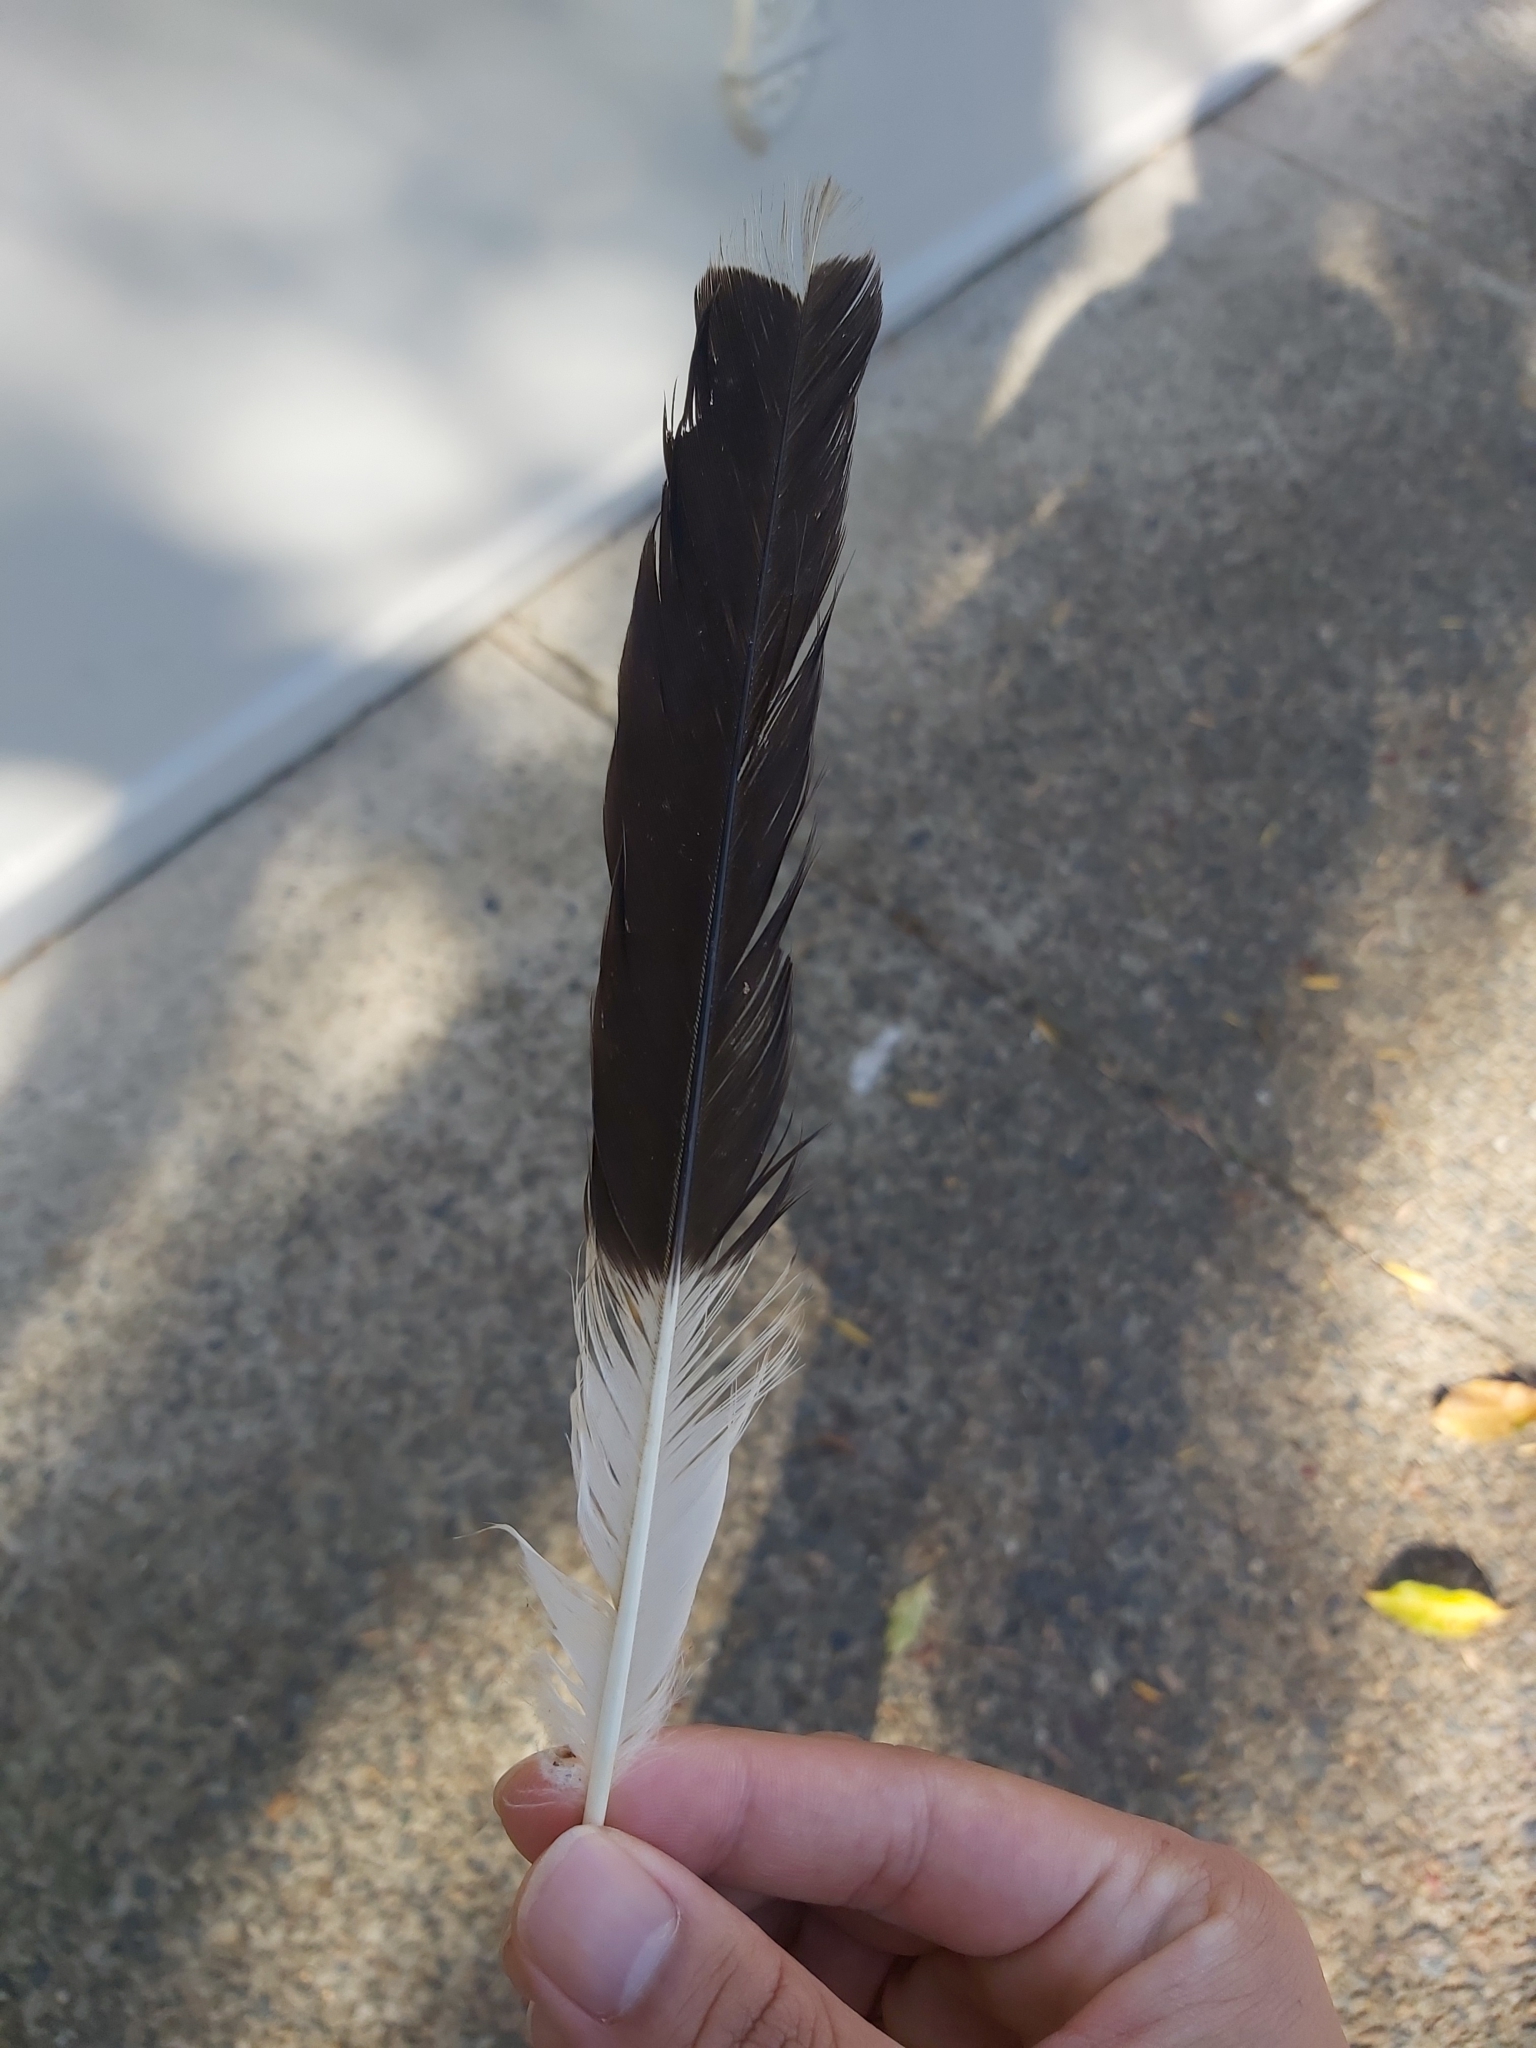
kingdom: Animalia
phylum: Chordata
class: Aves
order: Passeriformes
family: Cracticidae
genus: Strepera
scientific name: Strepera graculina
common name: Pied currawong
